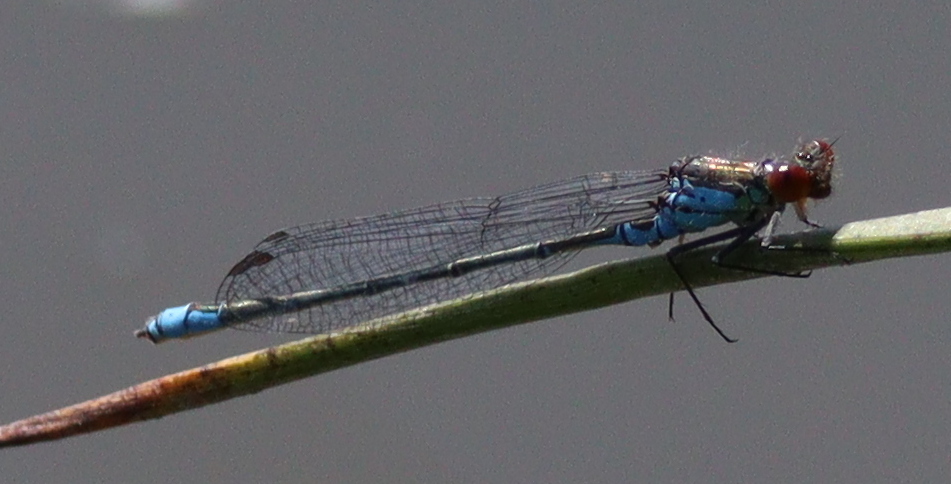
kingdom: Animalia
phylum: Arthropoda
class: Insecta
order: Odonata
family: Coenagrionidae
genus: Erythromma
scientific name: Erythromma viridulum
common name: Small red-eyed damselfly
